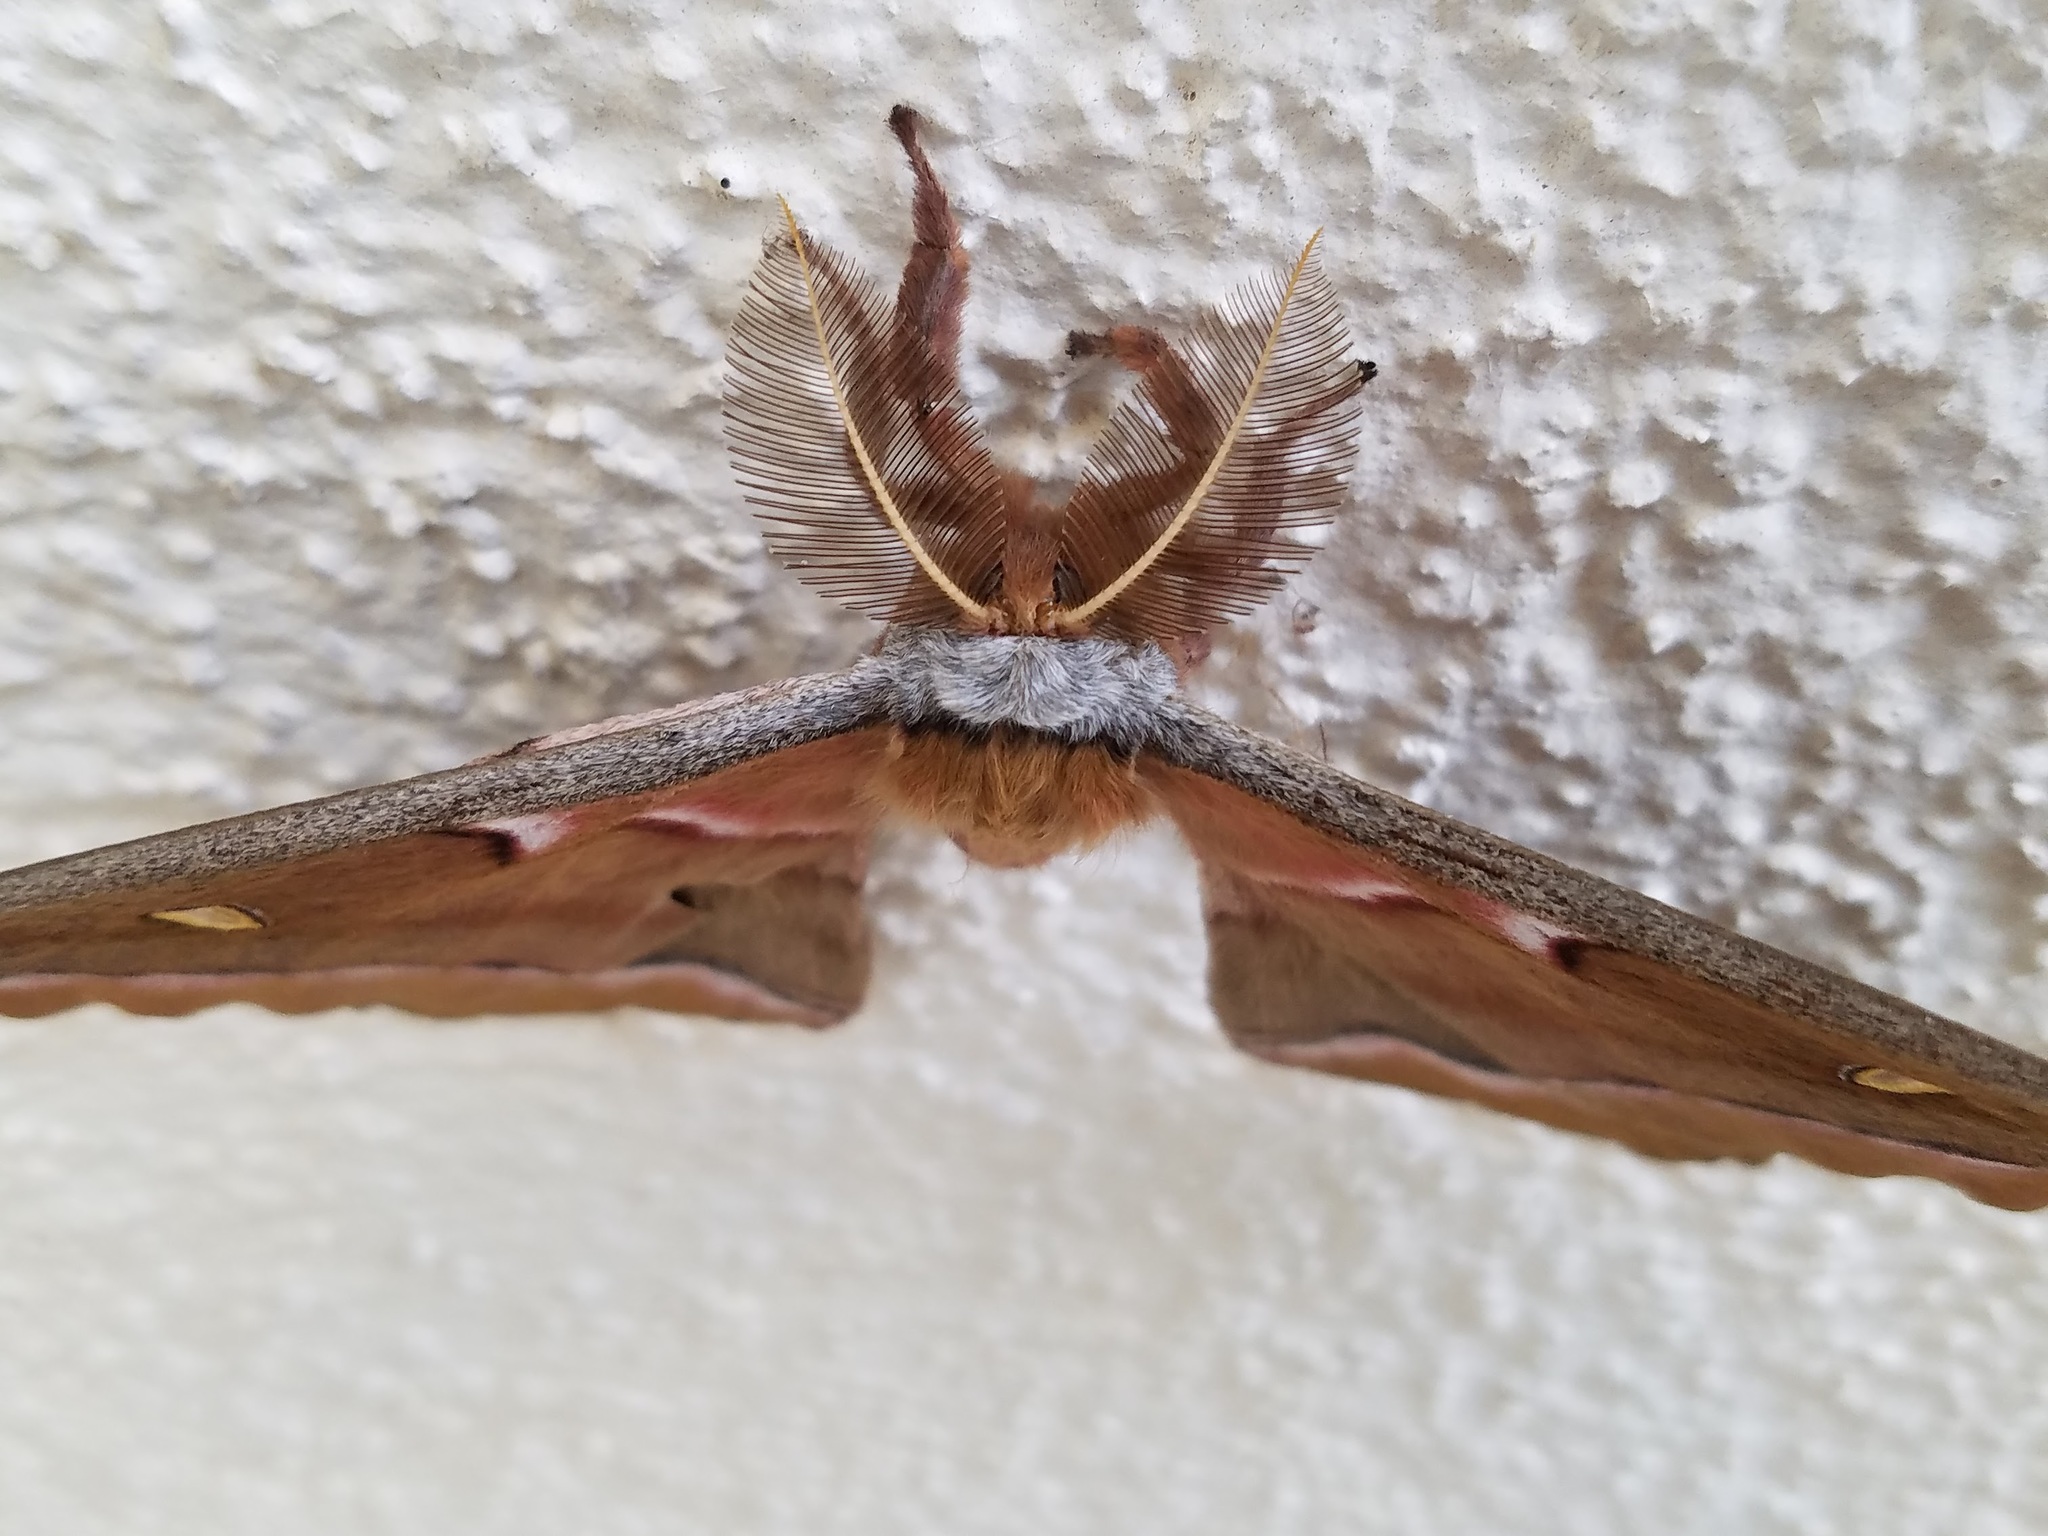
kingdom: Animalia
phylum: Arthropoda
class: Insecta
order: Lepidoptera
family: Saturniidae
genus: Antheraea
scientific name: Antheraea polyphemus
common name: Polyphemus moth
